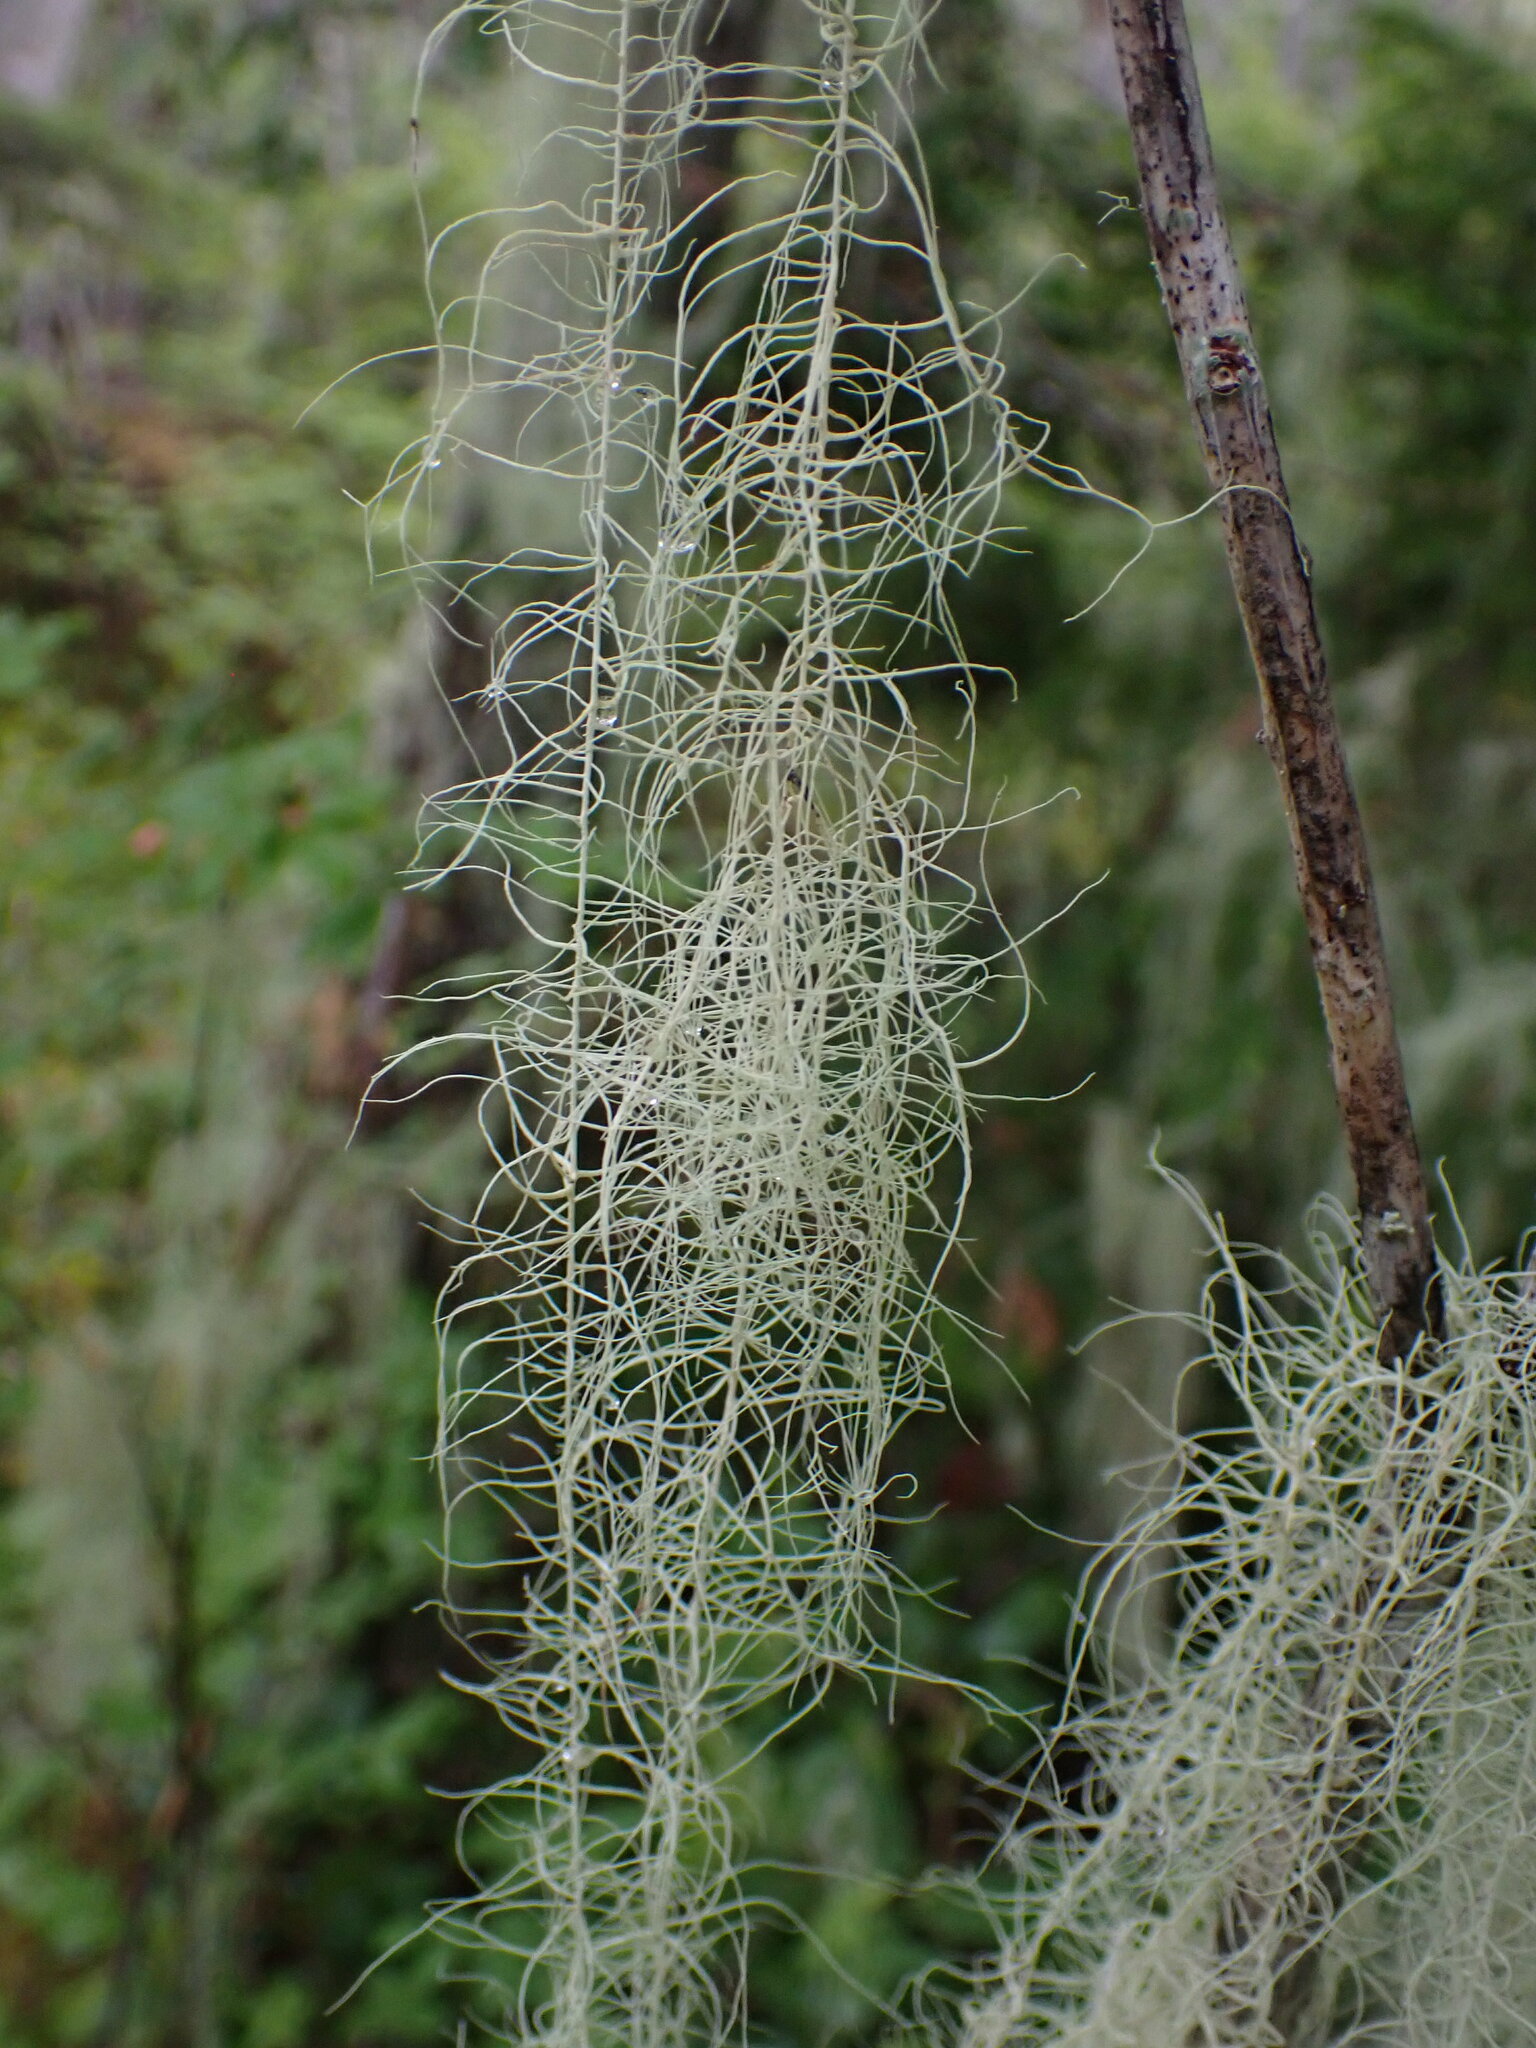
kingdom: Fungi
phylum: Ascomycota
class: Lecanoromycetes
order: Lecanorales
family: Parmeliaceae
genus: Dolichousnea
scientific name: Dolichousnea longissima
